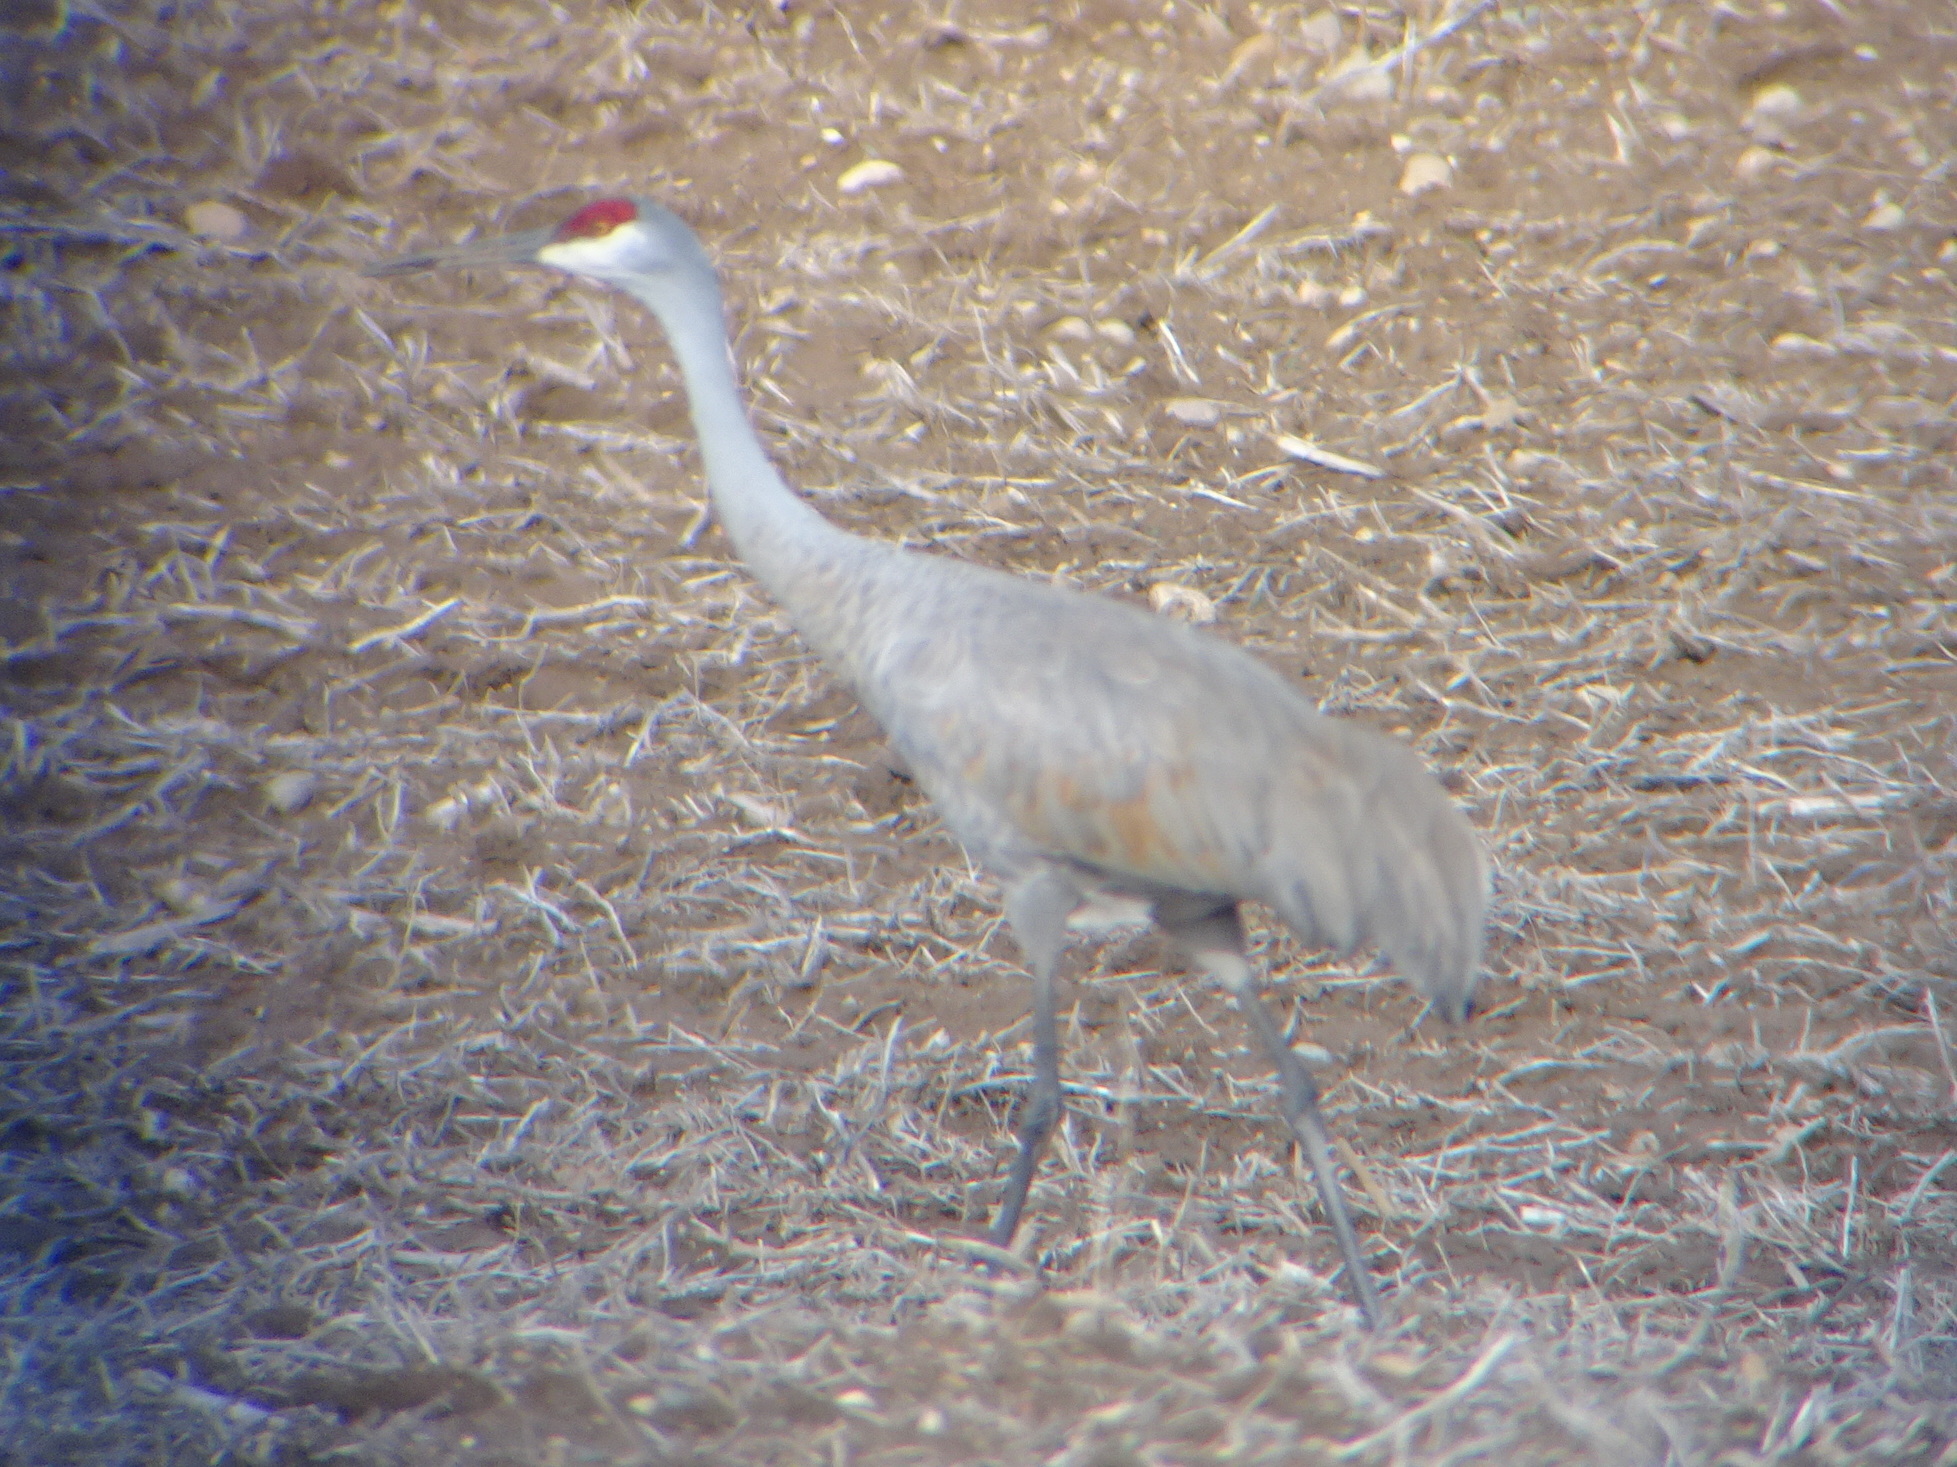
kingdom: Animalia
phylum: Chordata
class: Aves
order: Gruiformes
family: Gruidae
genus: Grus
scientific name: Grus canadensis
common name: Sandhill crane
